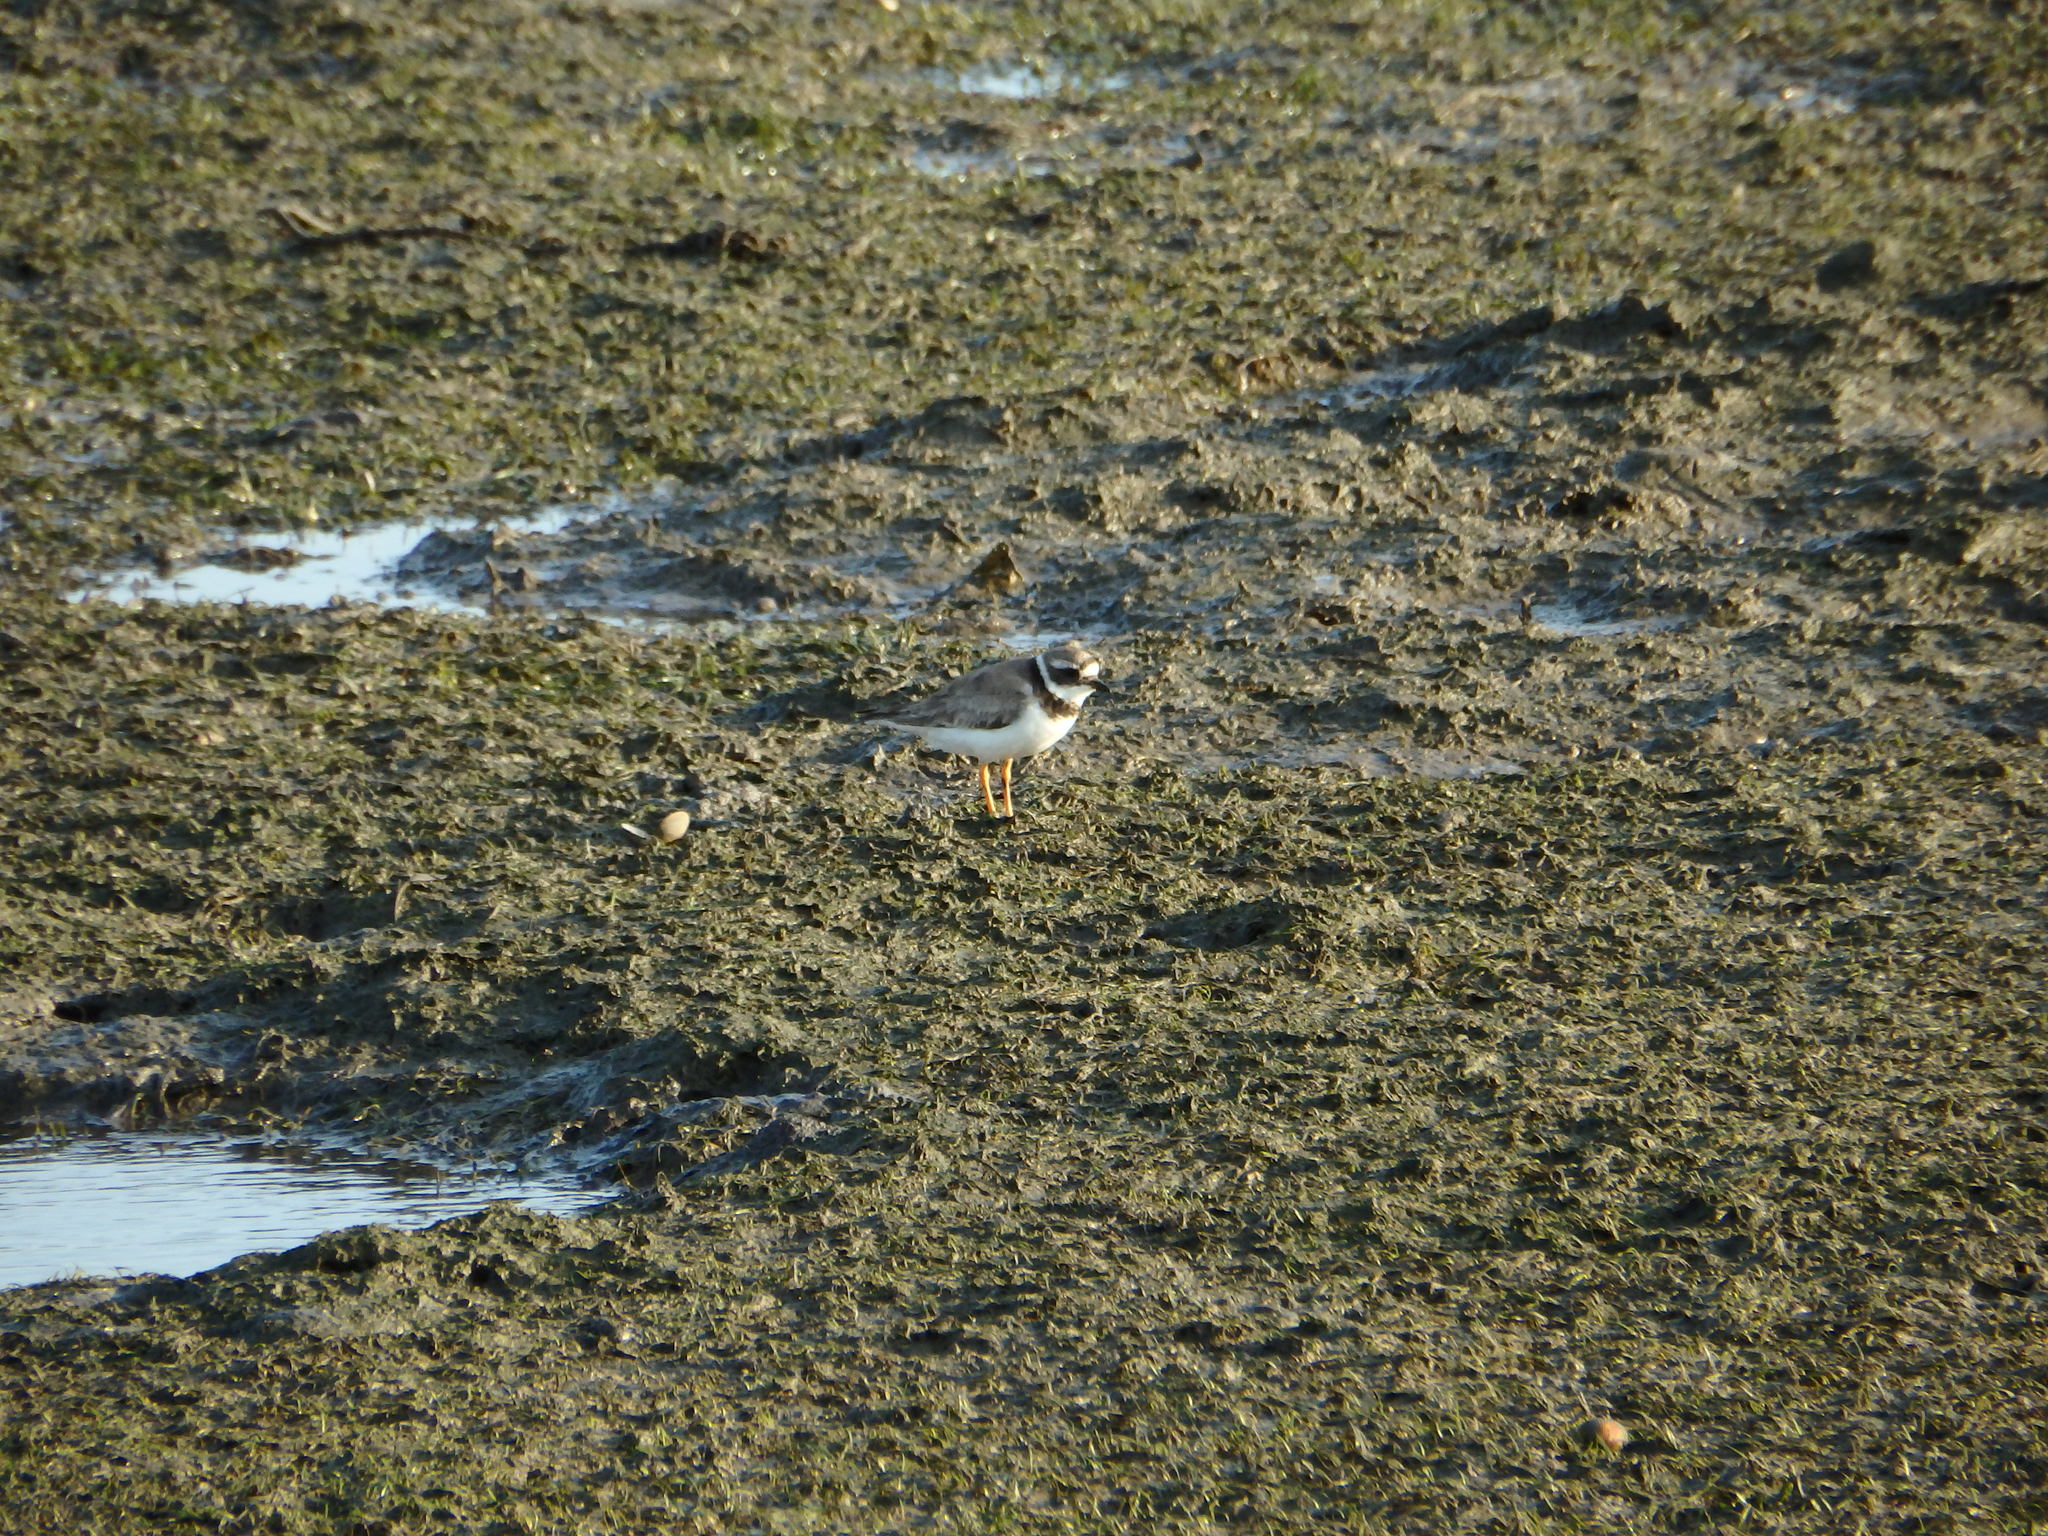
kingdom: Animalia
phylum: Chordata
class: Aves
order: Charadriiformes
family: Charadriidae
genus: Charadrius
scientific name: Charadrius hiaticula
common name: Common ringed plover
